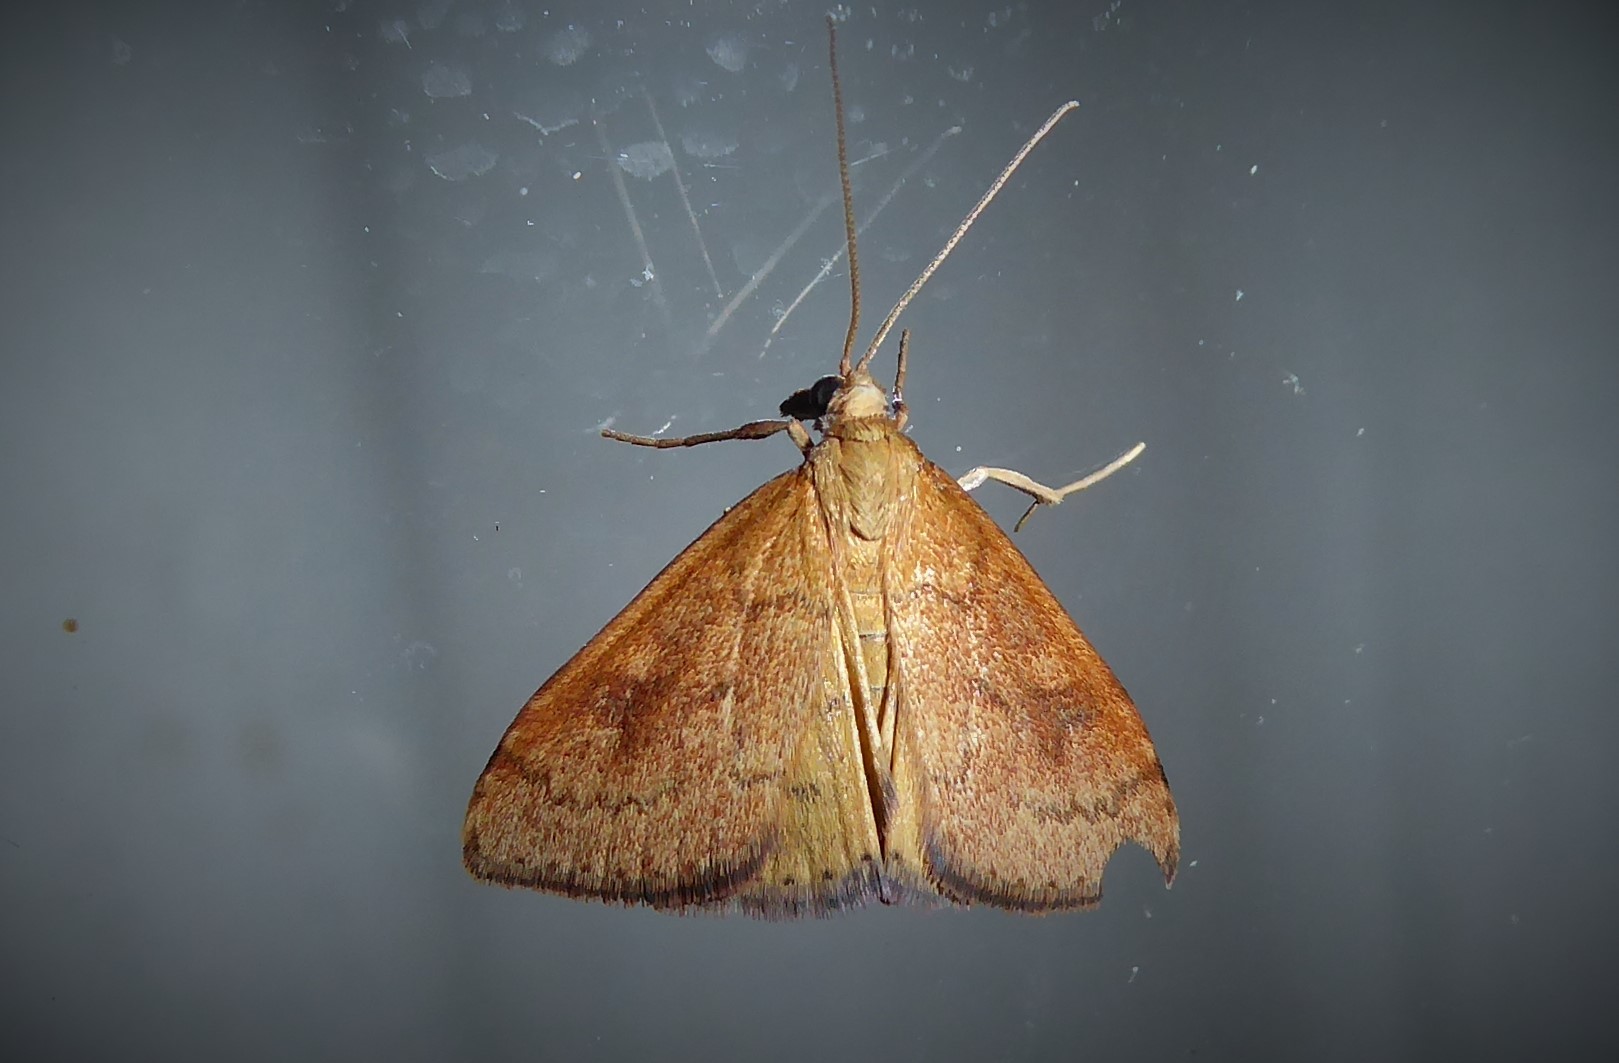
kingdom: Animalia
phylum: Arthropoda
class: Insecta
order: Lepidoptera
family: Crambidae
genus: Udea
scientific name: Udea Mnesictena flavidalis
